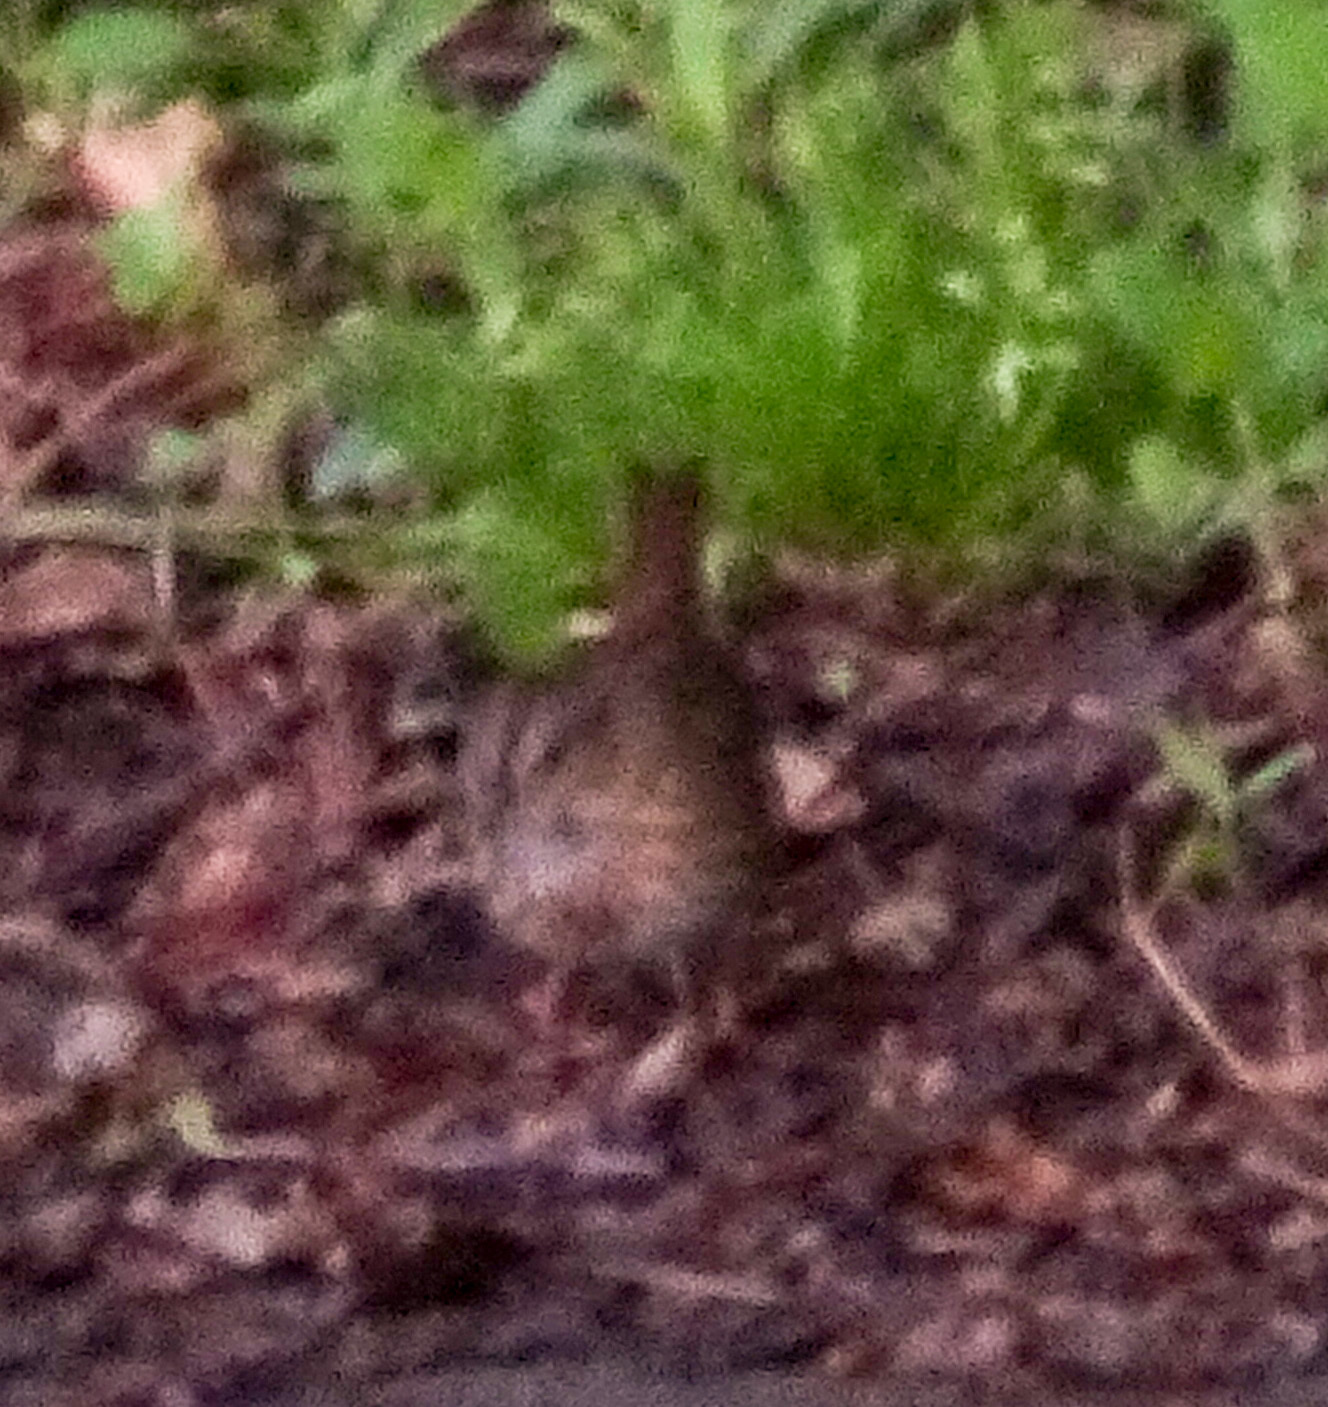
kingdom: Animalia
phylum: Chordata
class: Aves
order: Passeriformes
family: Passerellidae
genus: Melospiza
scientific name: Melospiza lincolnii
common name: Lincoln's sparrow
